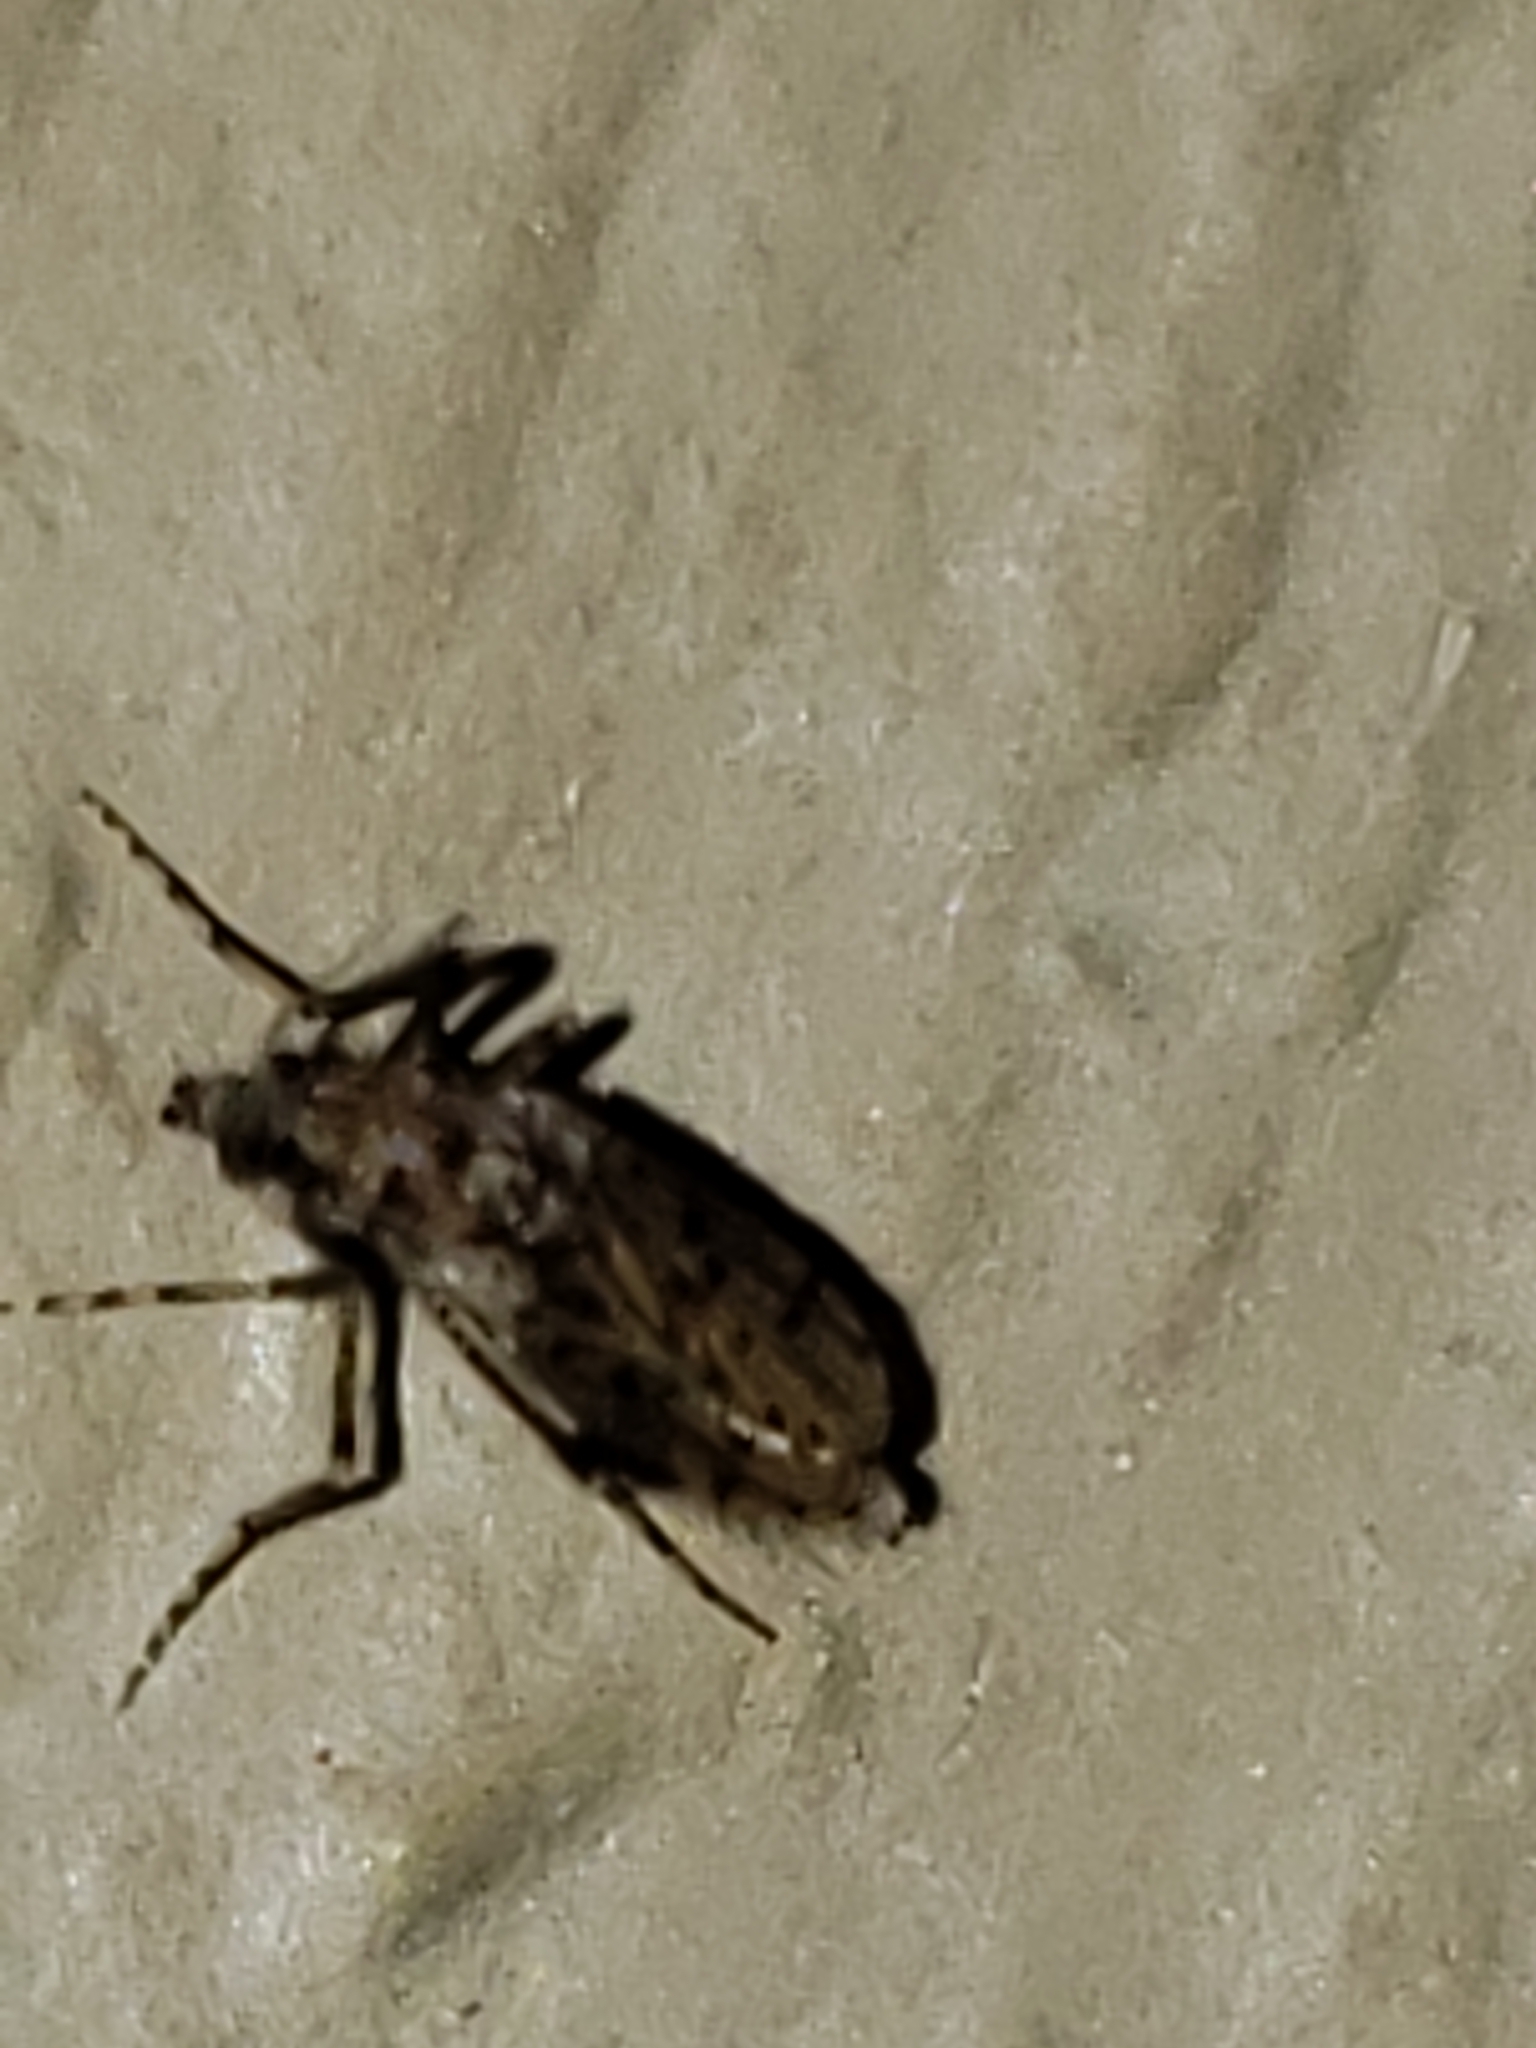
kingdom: Animalia
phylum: Arthropoda
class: Insecta
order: Diptera
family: Chaoboridae
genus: Chaoborus
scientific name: Chaoborus punctipennis
